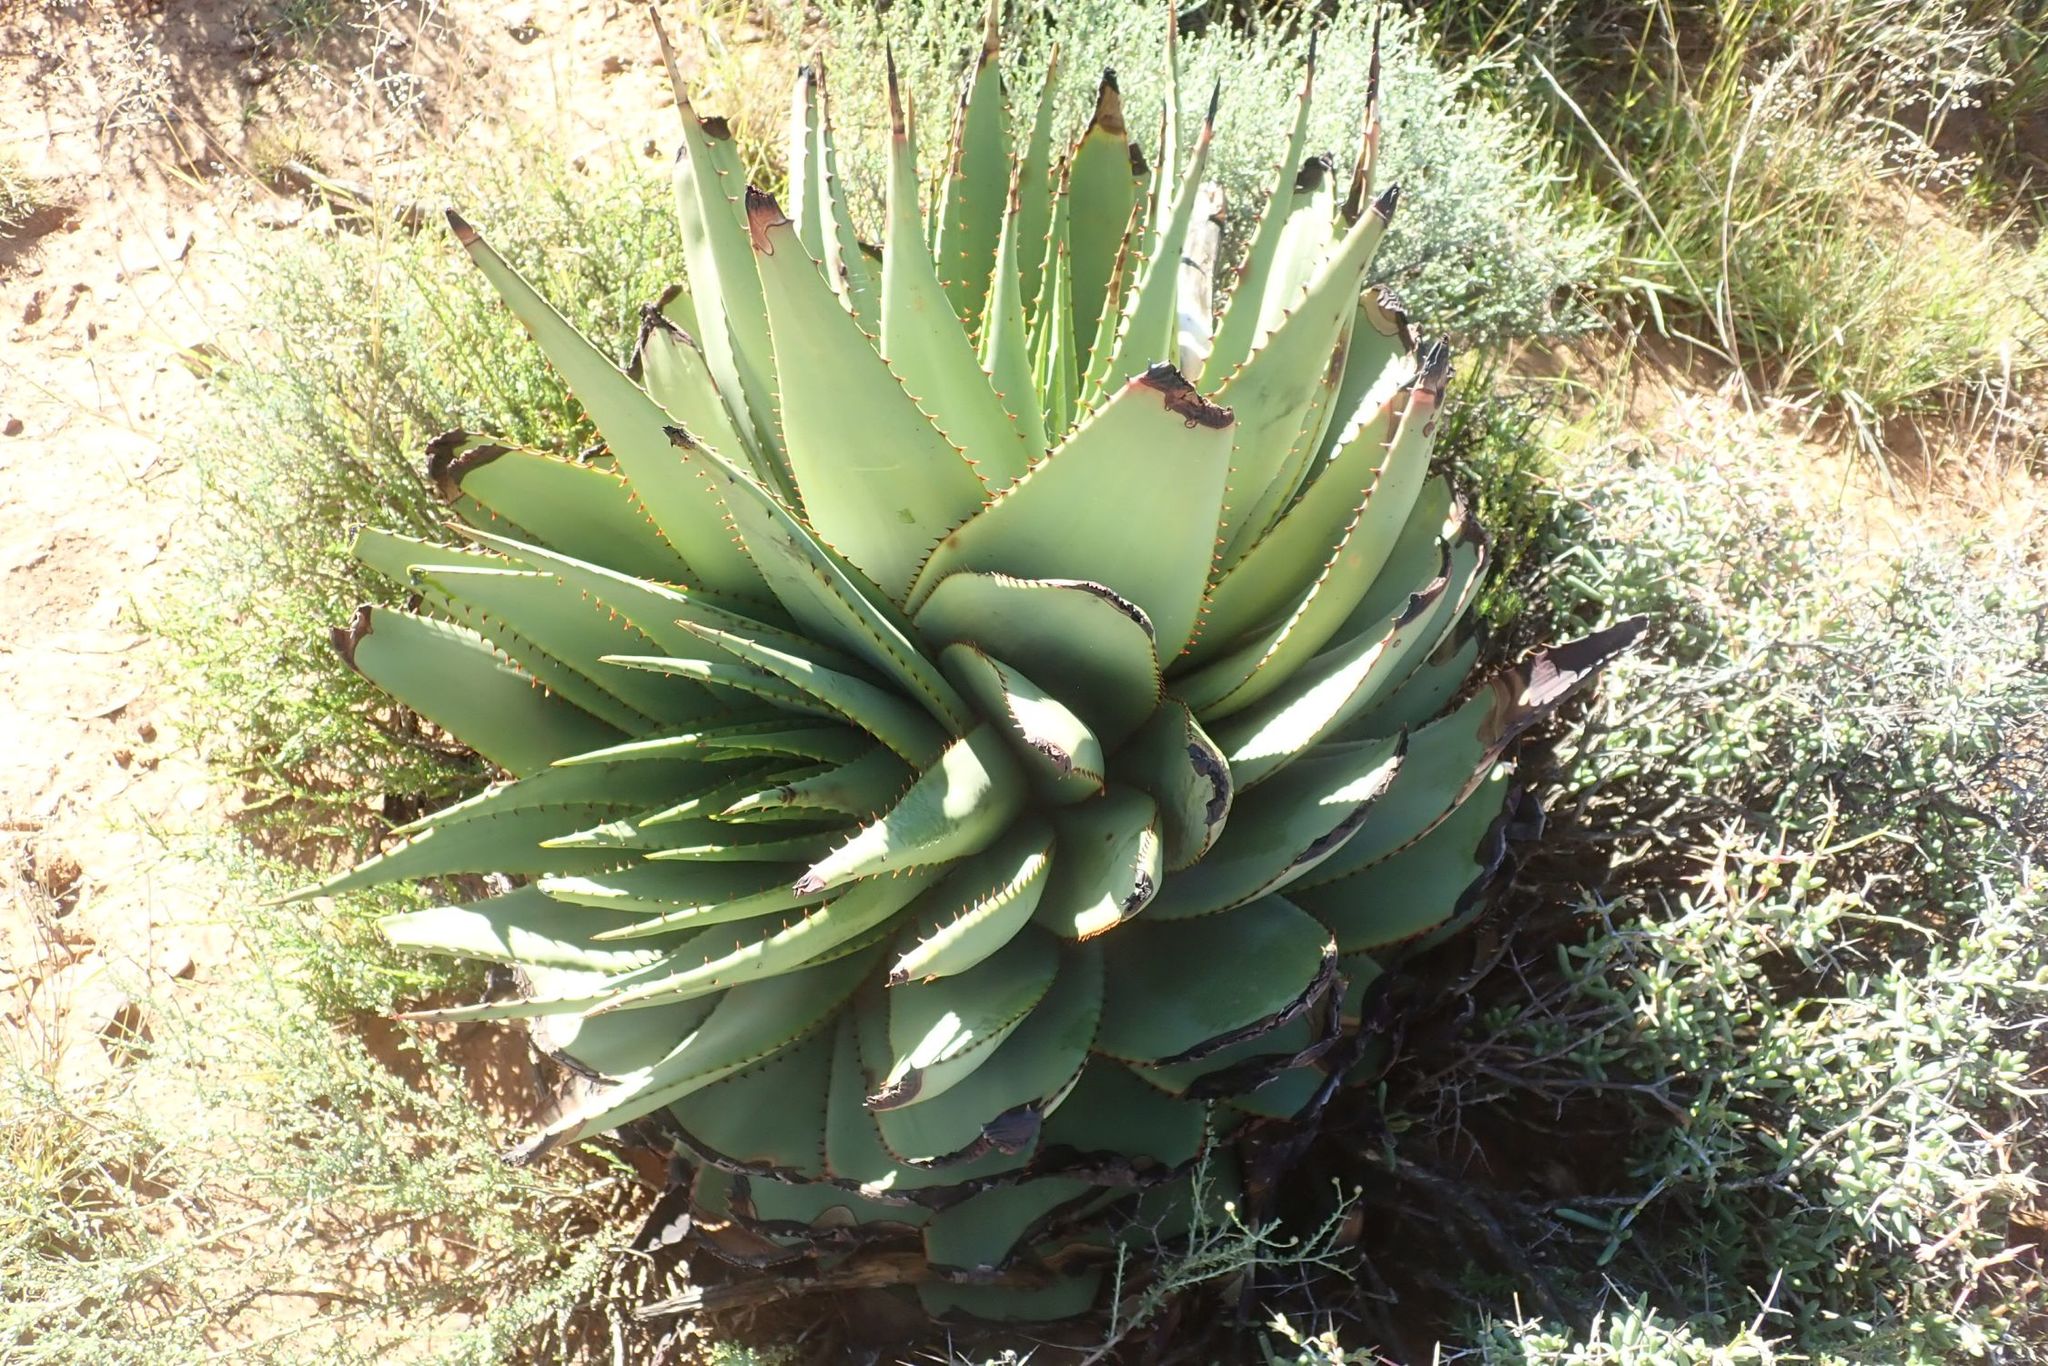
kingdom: Plantae
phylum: Tracheophyta
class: Liliopsida
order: Asparagales
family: Asphodelaceae
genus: Aloe
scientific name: Aloe broomii
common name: Berg alwyn
